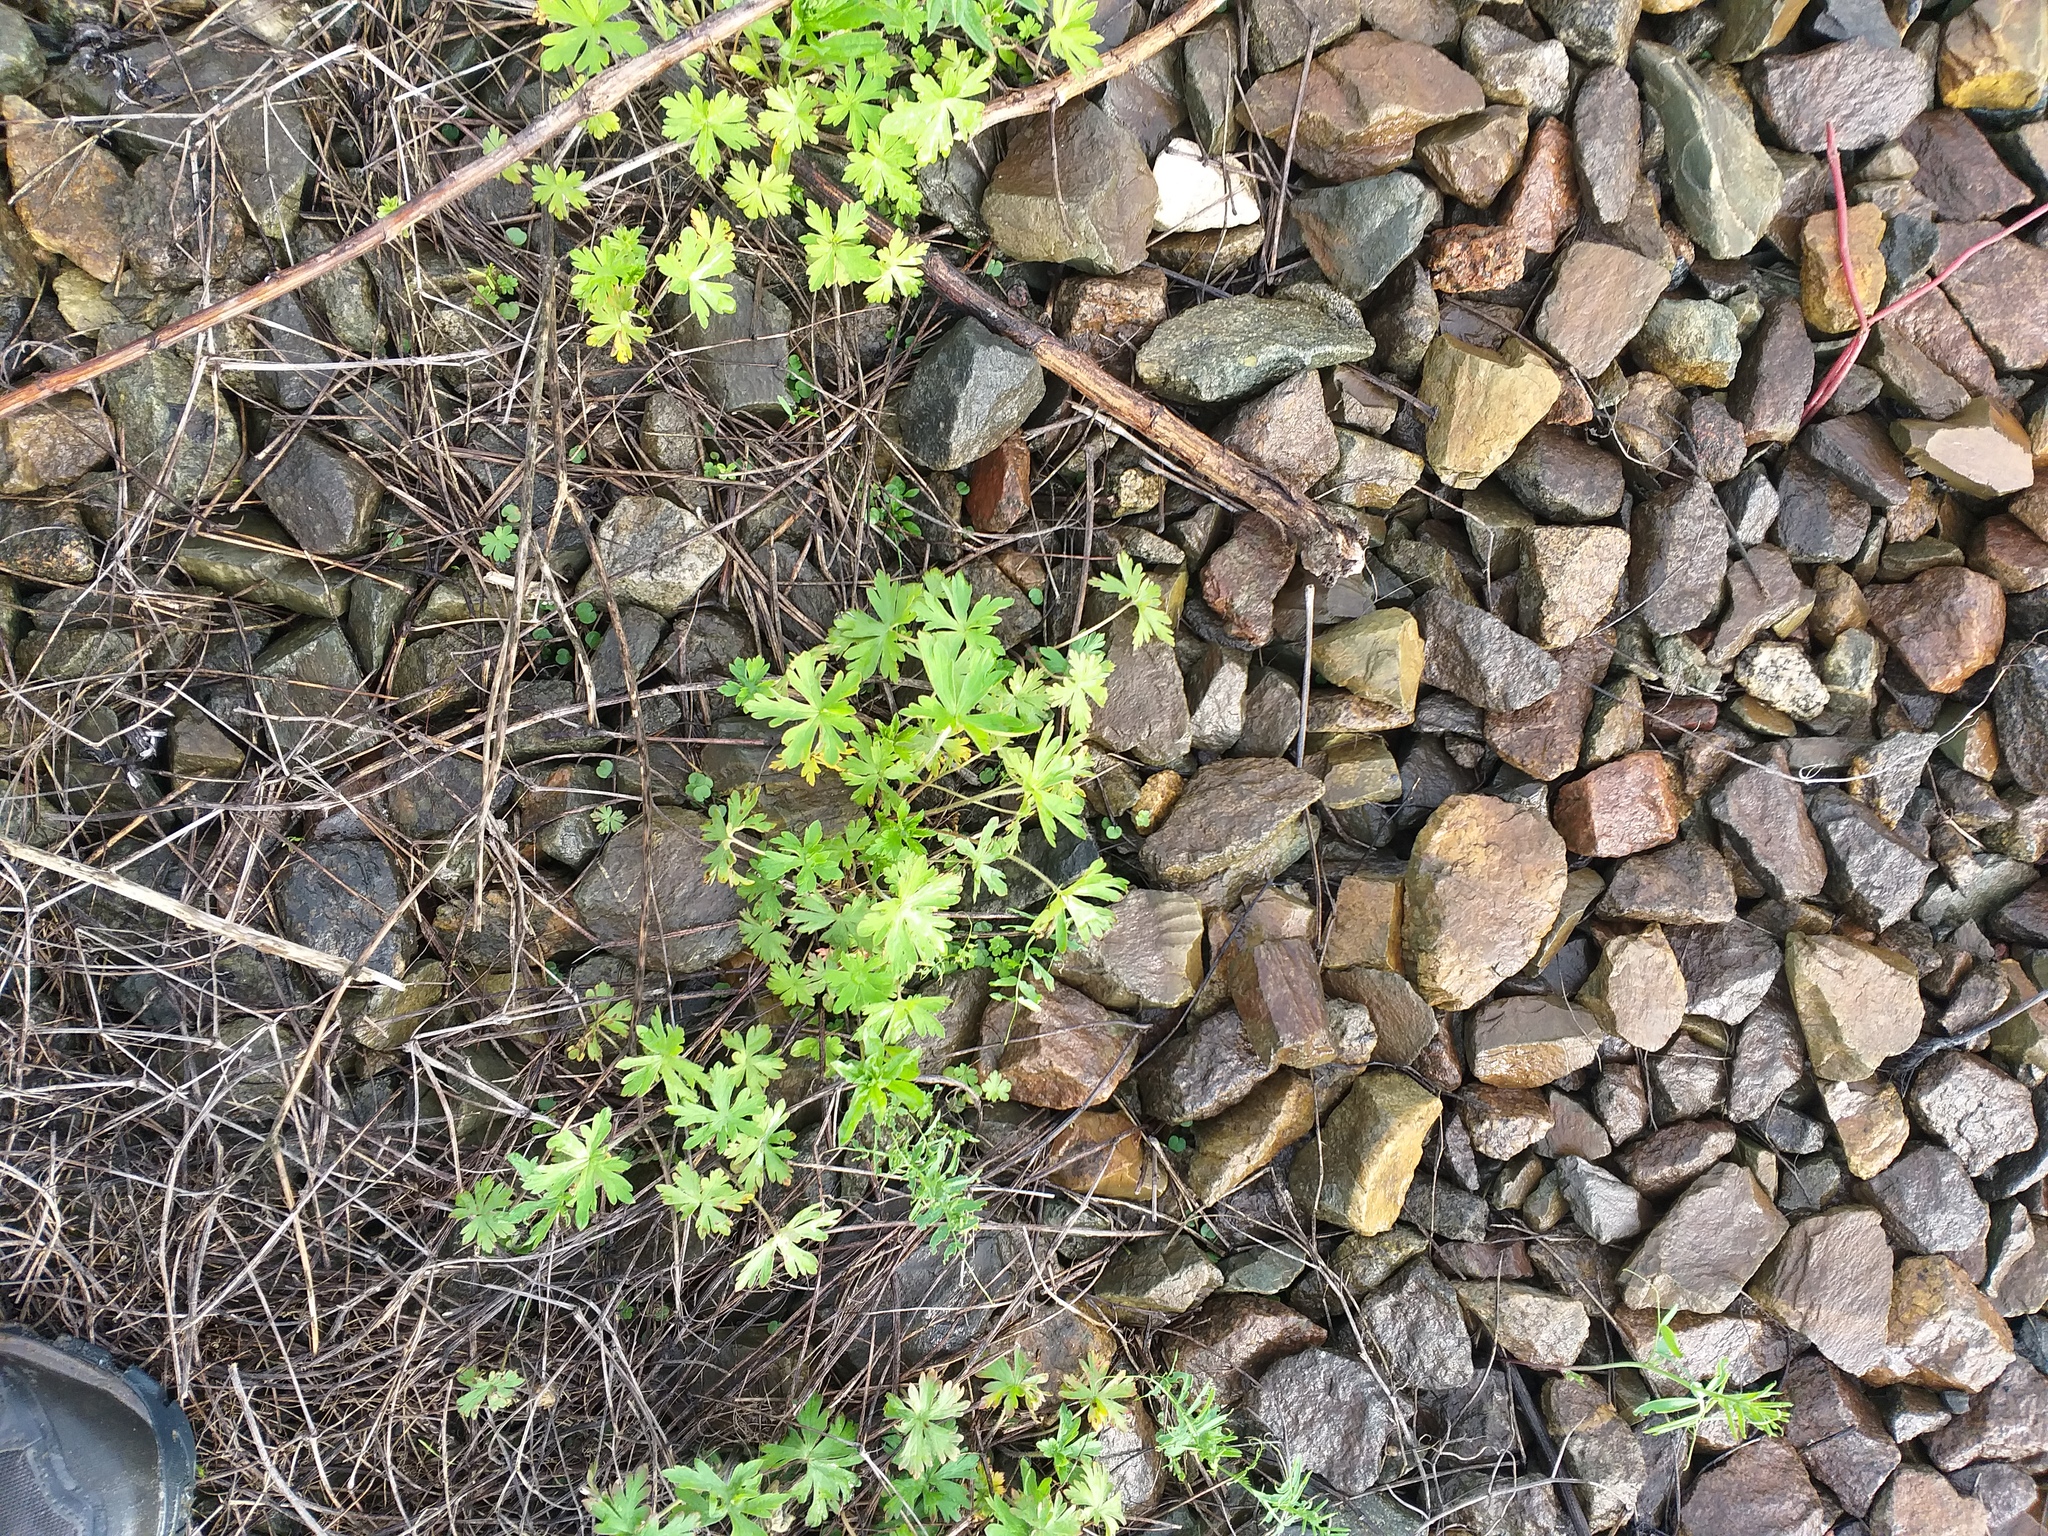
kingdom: Plantae
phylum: Tracheophyta
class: Magnoliopsida
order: Geraniales
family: Geraniaceae
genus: Geranium
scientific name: Geranium sibiricum
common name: Siberian crane's-bill
